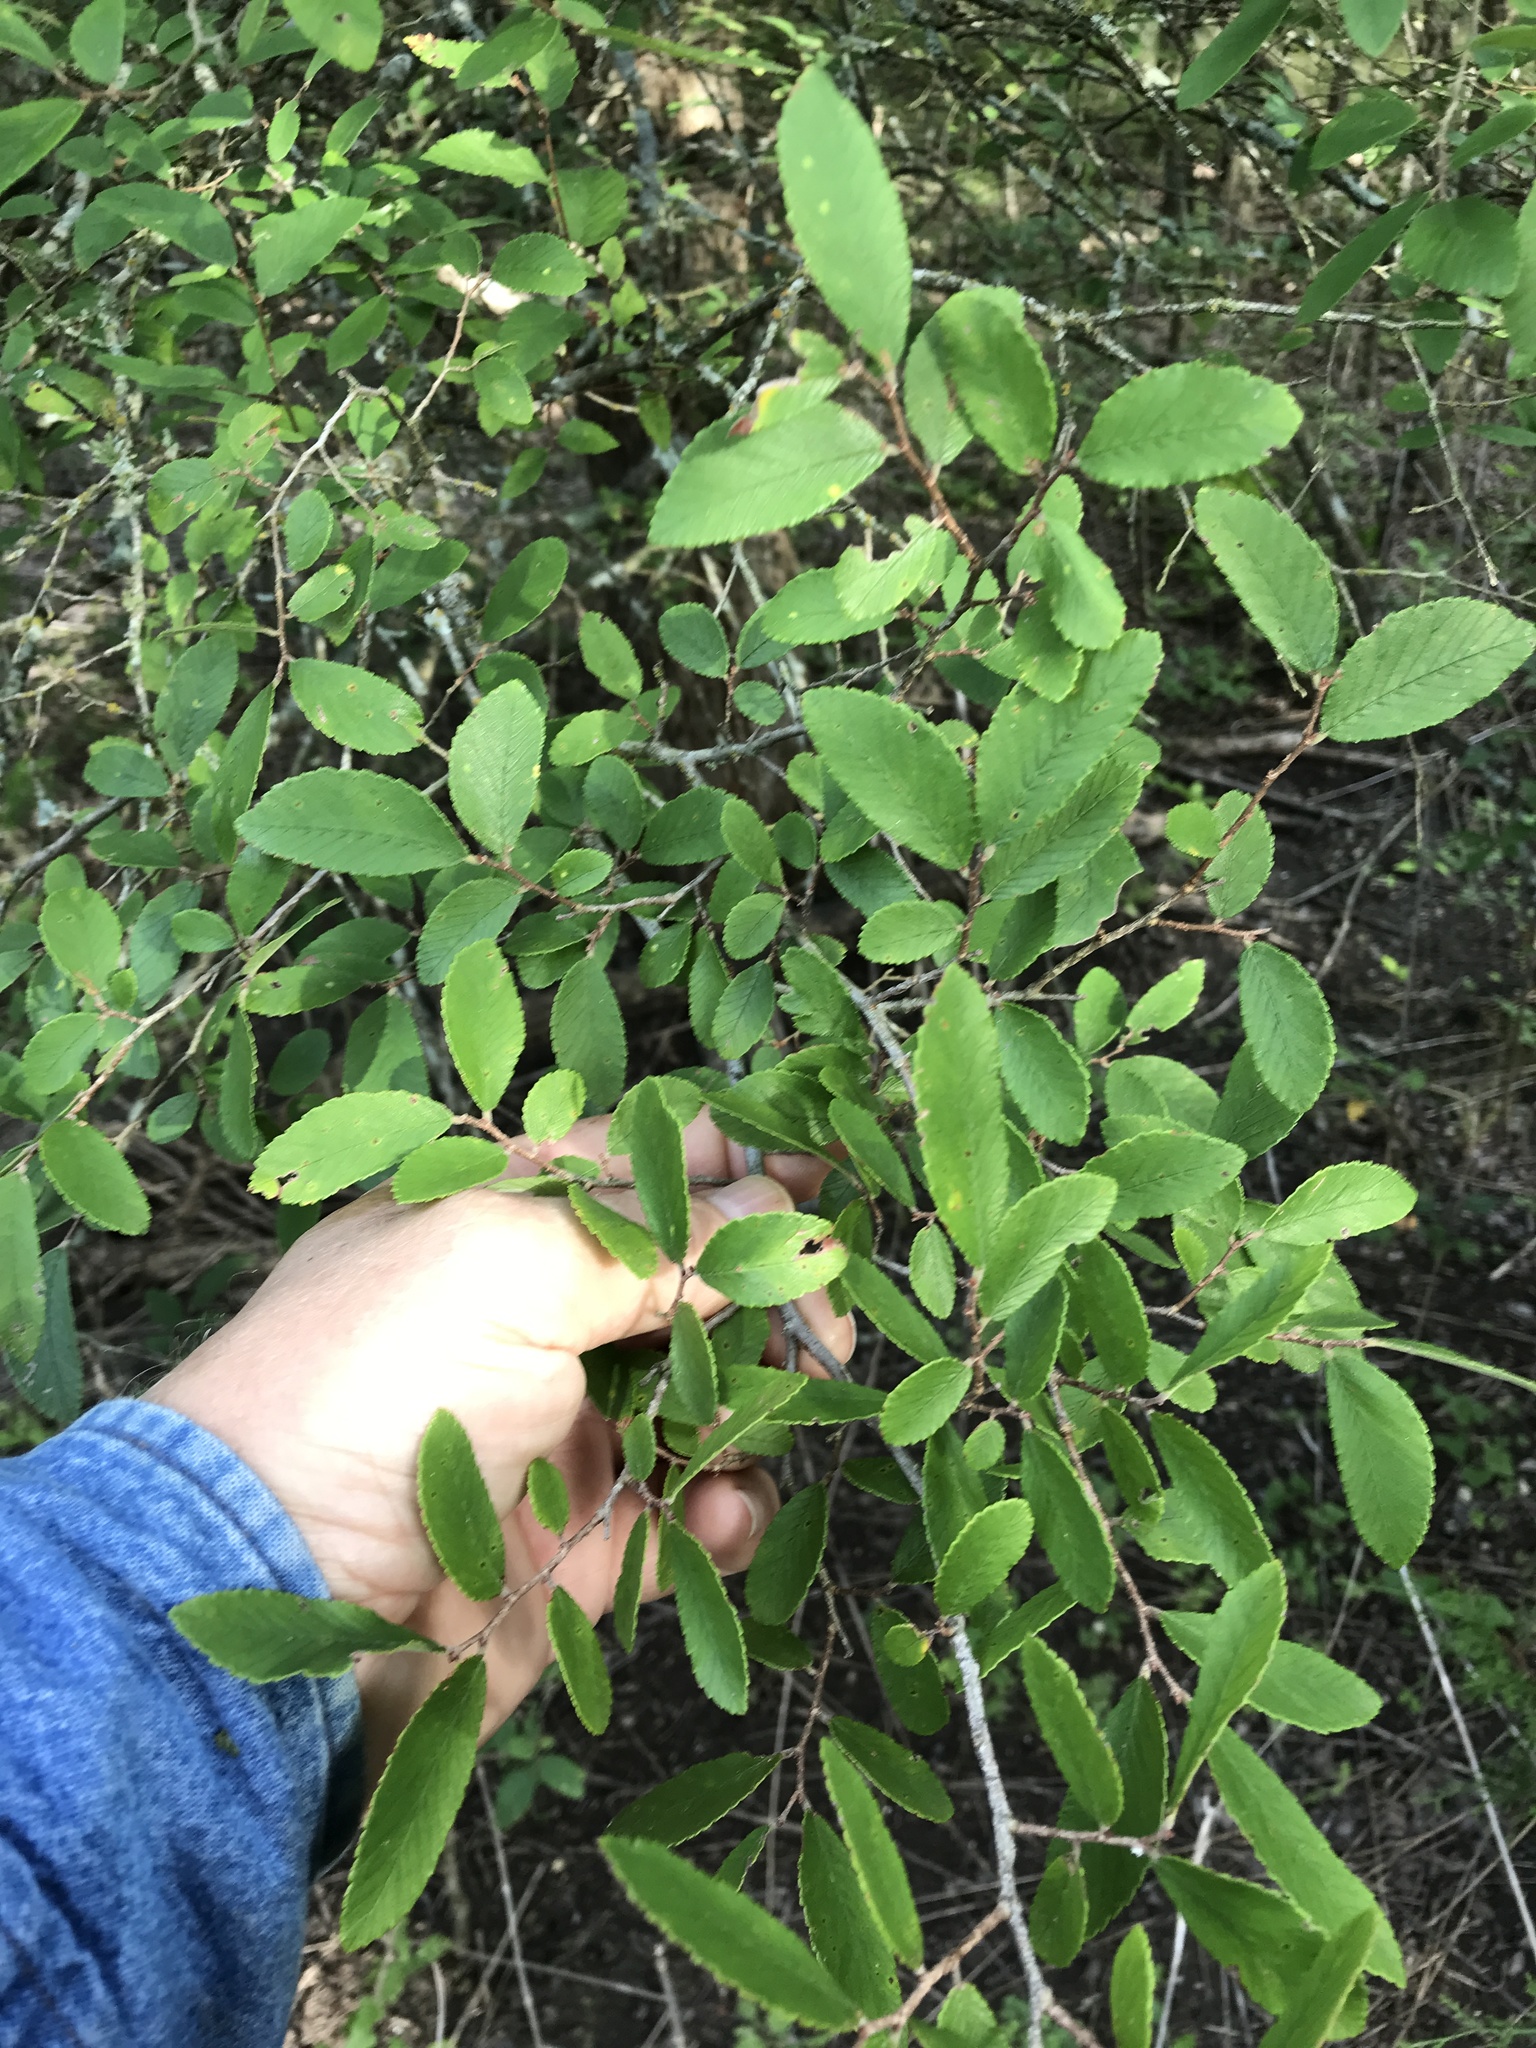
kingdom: Plantae
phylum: Tracheophyta
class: Magnoliopsida
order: Rosales
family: Ulmaceae
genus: Ulmus
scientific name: Ulmus crassifolia
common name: Basket elm
